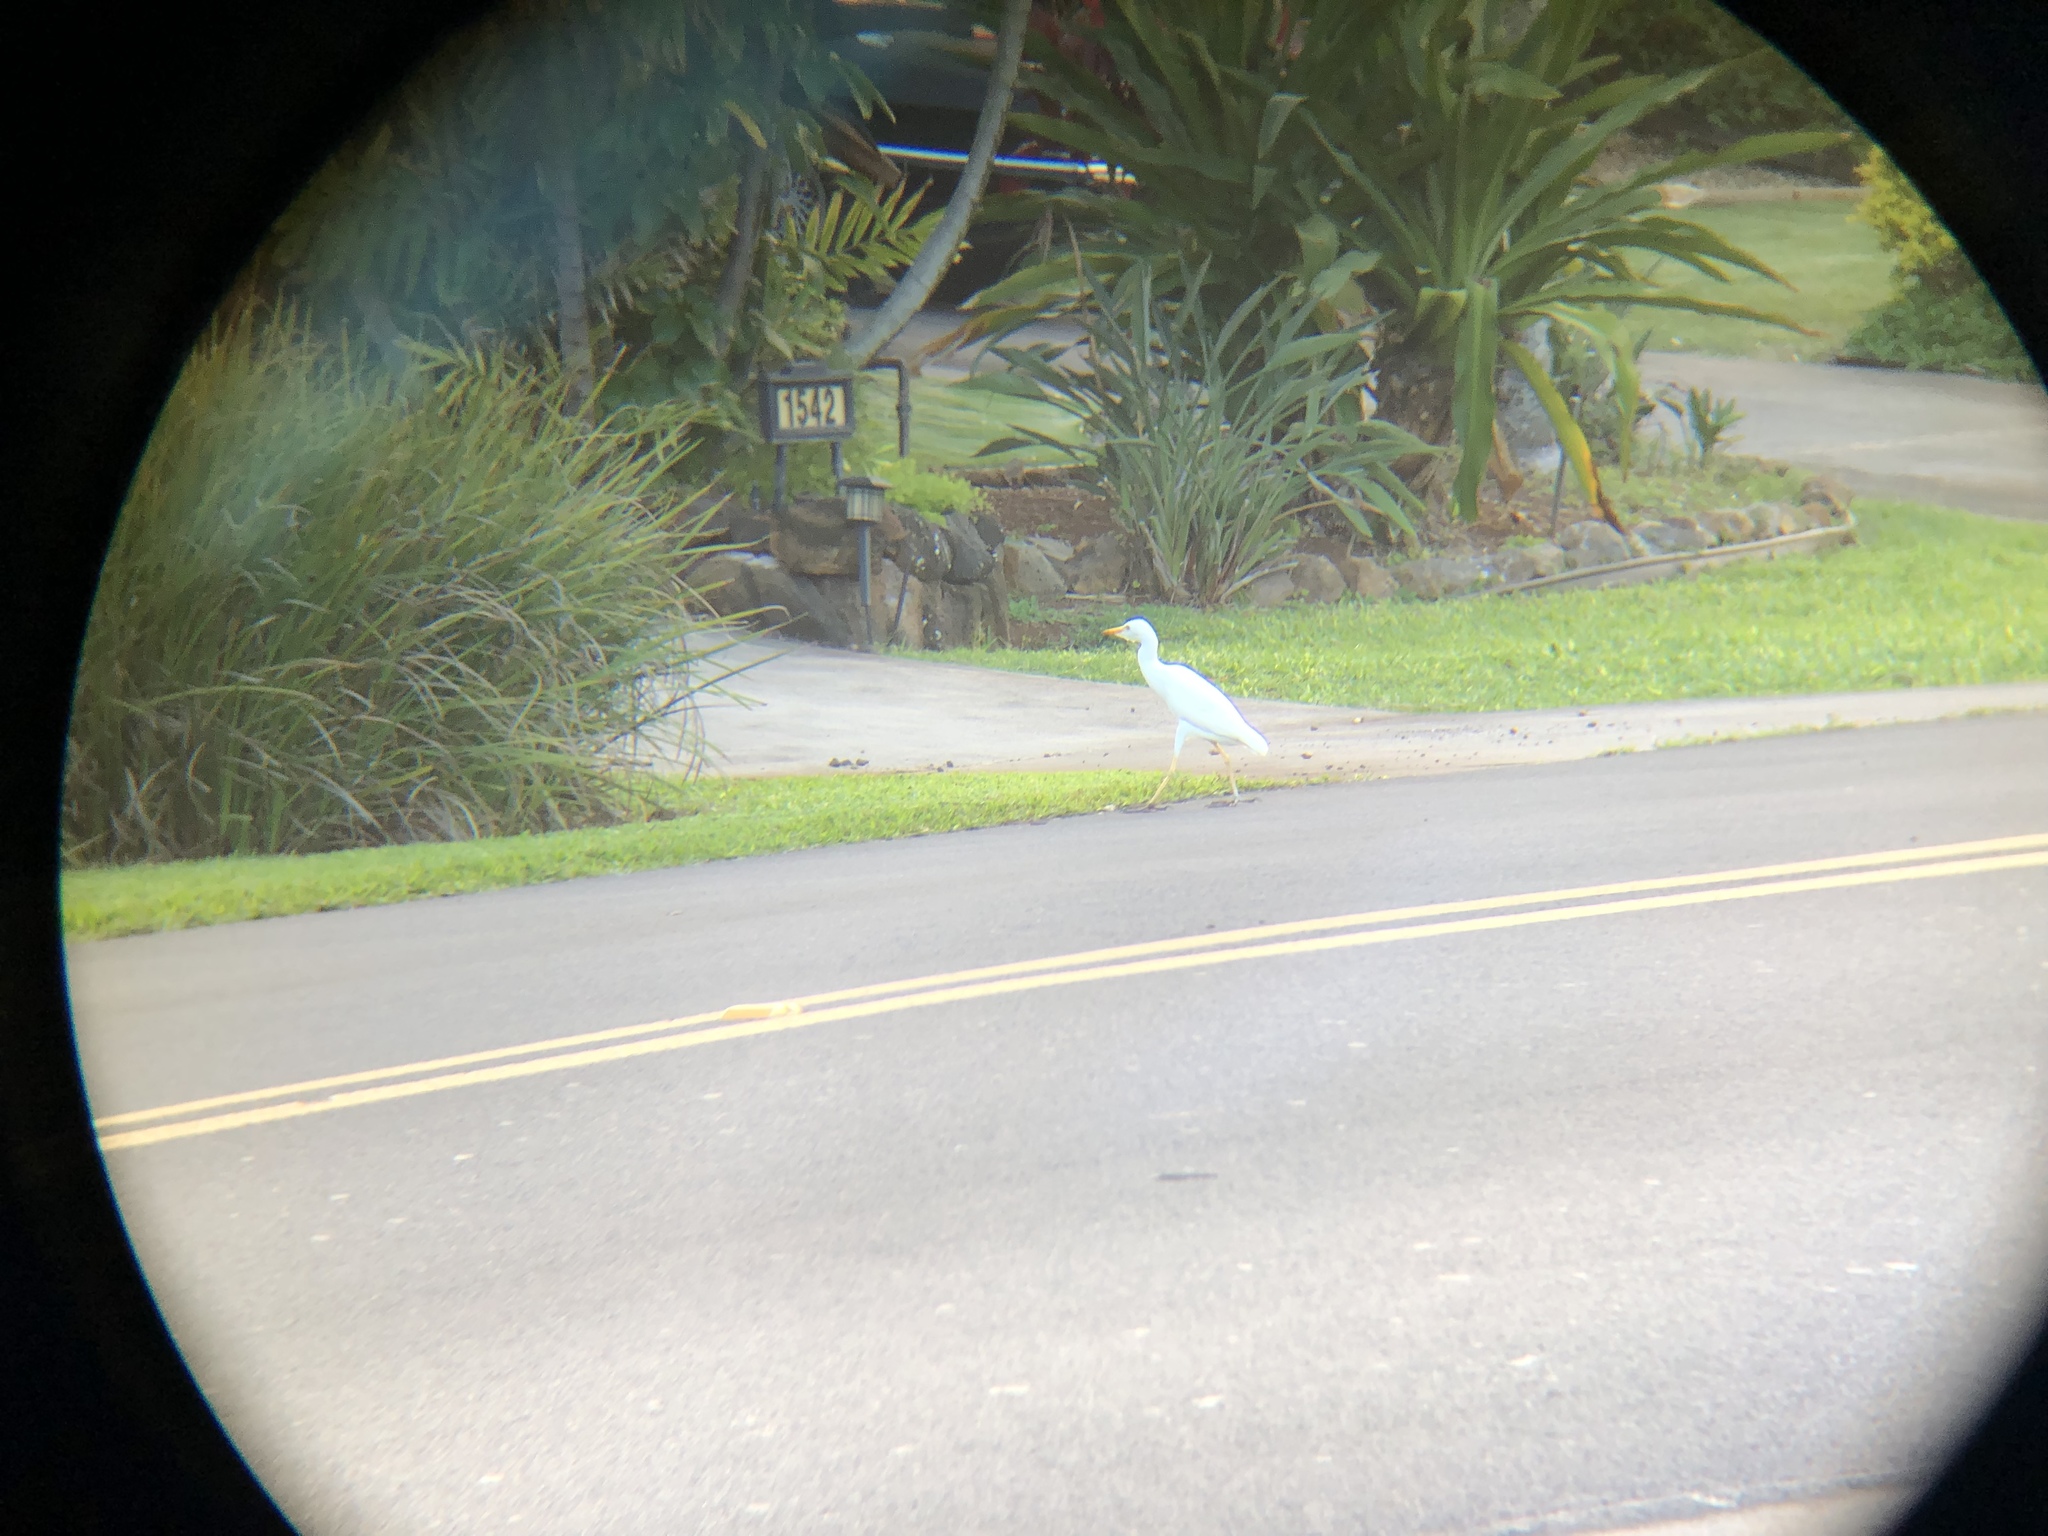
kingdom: Animalia
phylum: Chordata
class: Aves
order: Pelecaniformes
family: Ardeidae
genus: Bubulcus
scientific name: Bubulcus ibis
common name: Cattle egret
